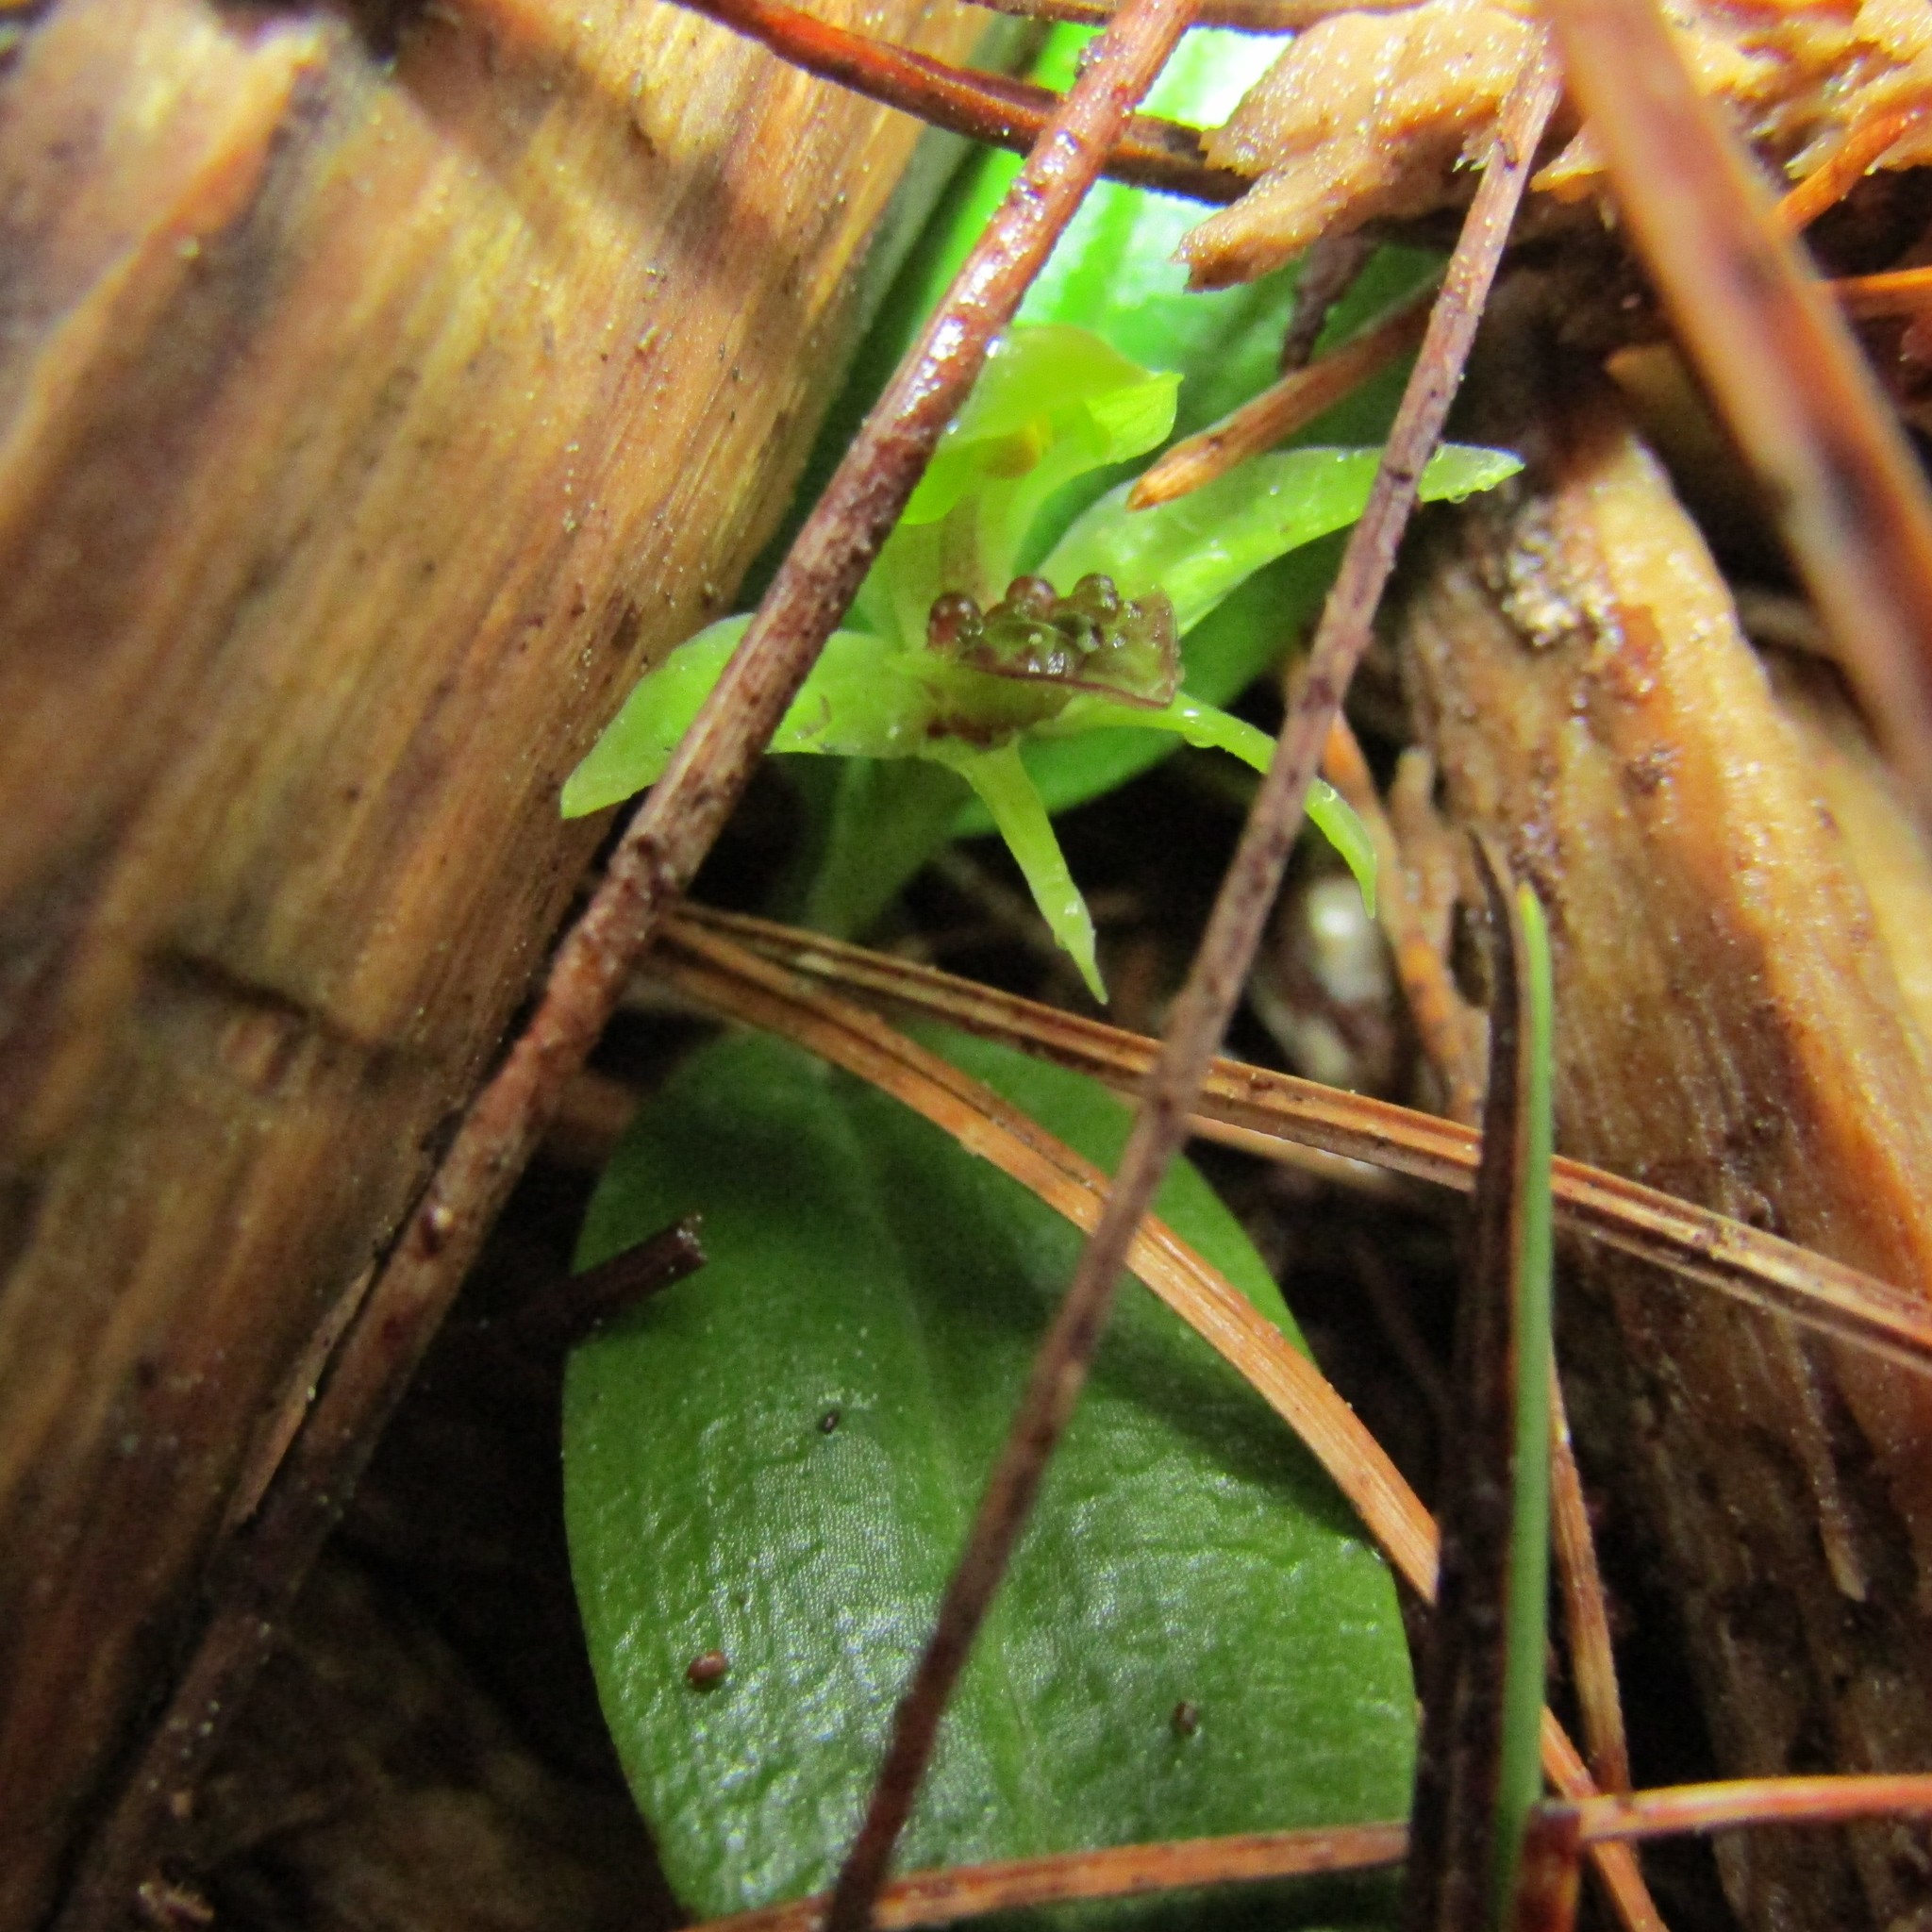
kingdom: Plantae
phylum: Tracheophyta
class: Liliopsida
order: Asparagales
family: Orchidaceae
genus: Chiloglottis
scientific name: Chiloglottis cornuta
